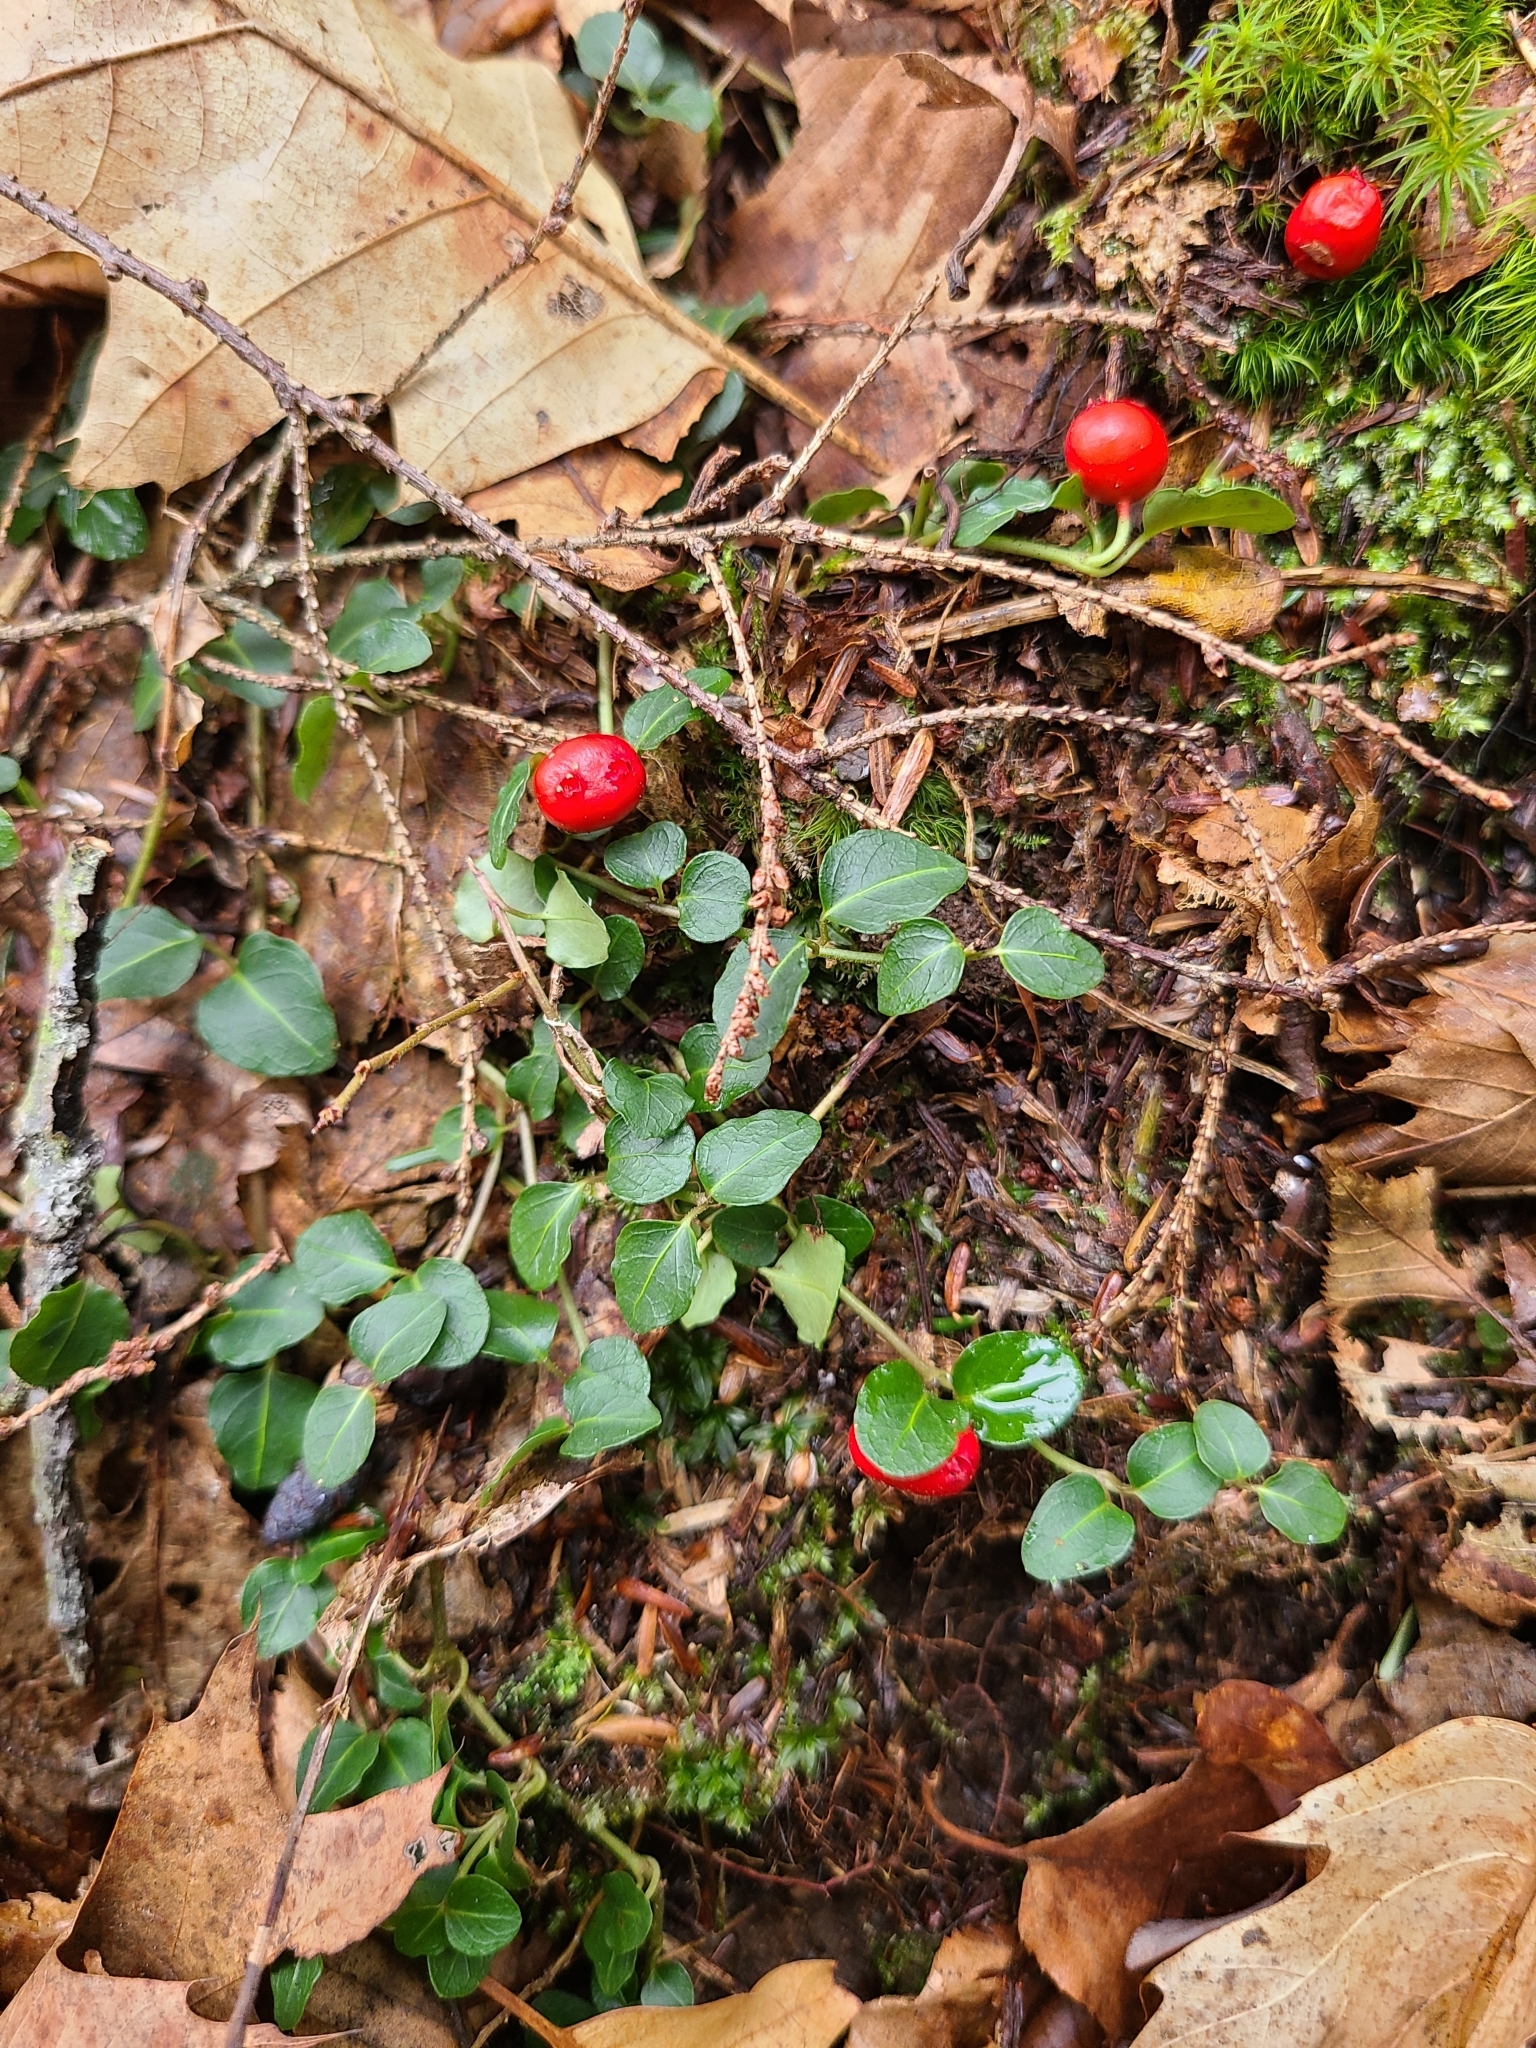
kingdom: Plantae
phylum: Tracheophyta
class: Magnoliopsida
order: Gentianales
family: Rubiaceae
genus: Mitchella
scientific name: Mitchella repens
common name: Partridge-berry
